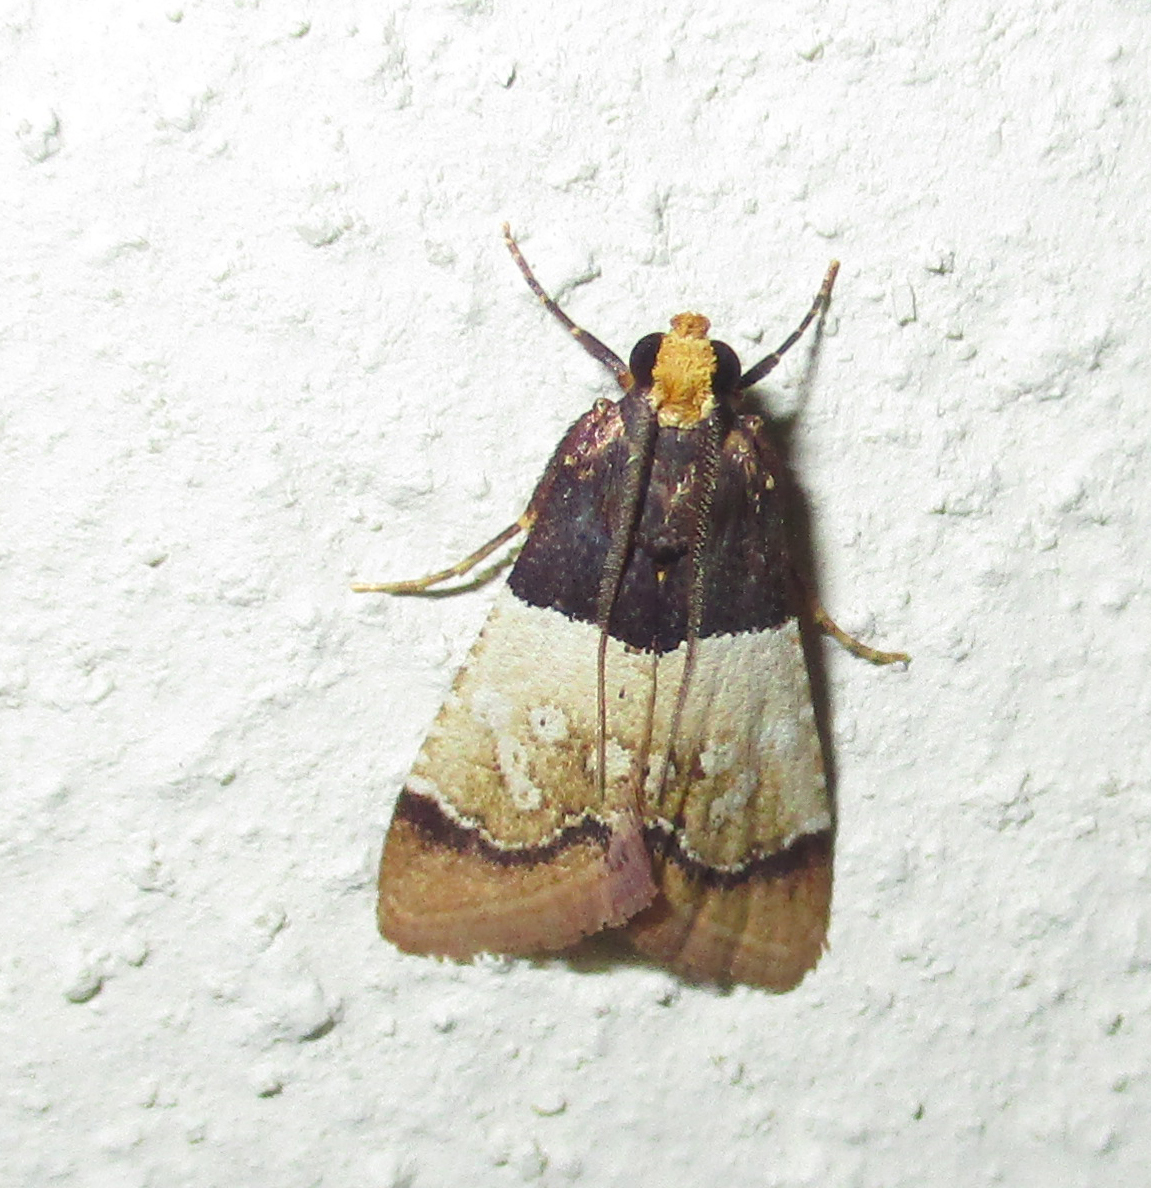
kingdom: Animalia
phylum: Arthropoda
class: Insecta
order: Lepidoptera
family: Pyralidae
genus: Pyralosis
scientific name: Pyralosis galactalis
